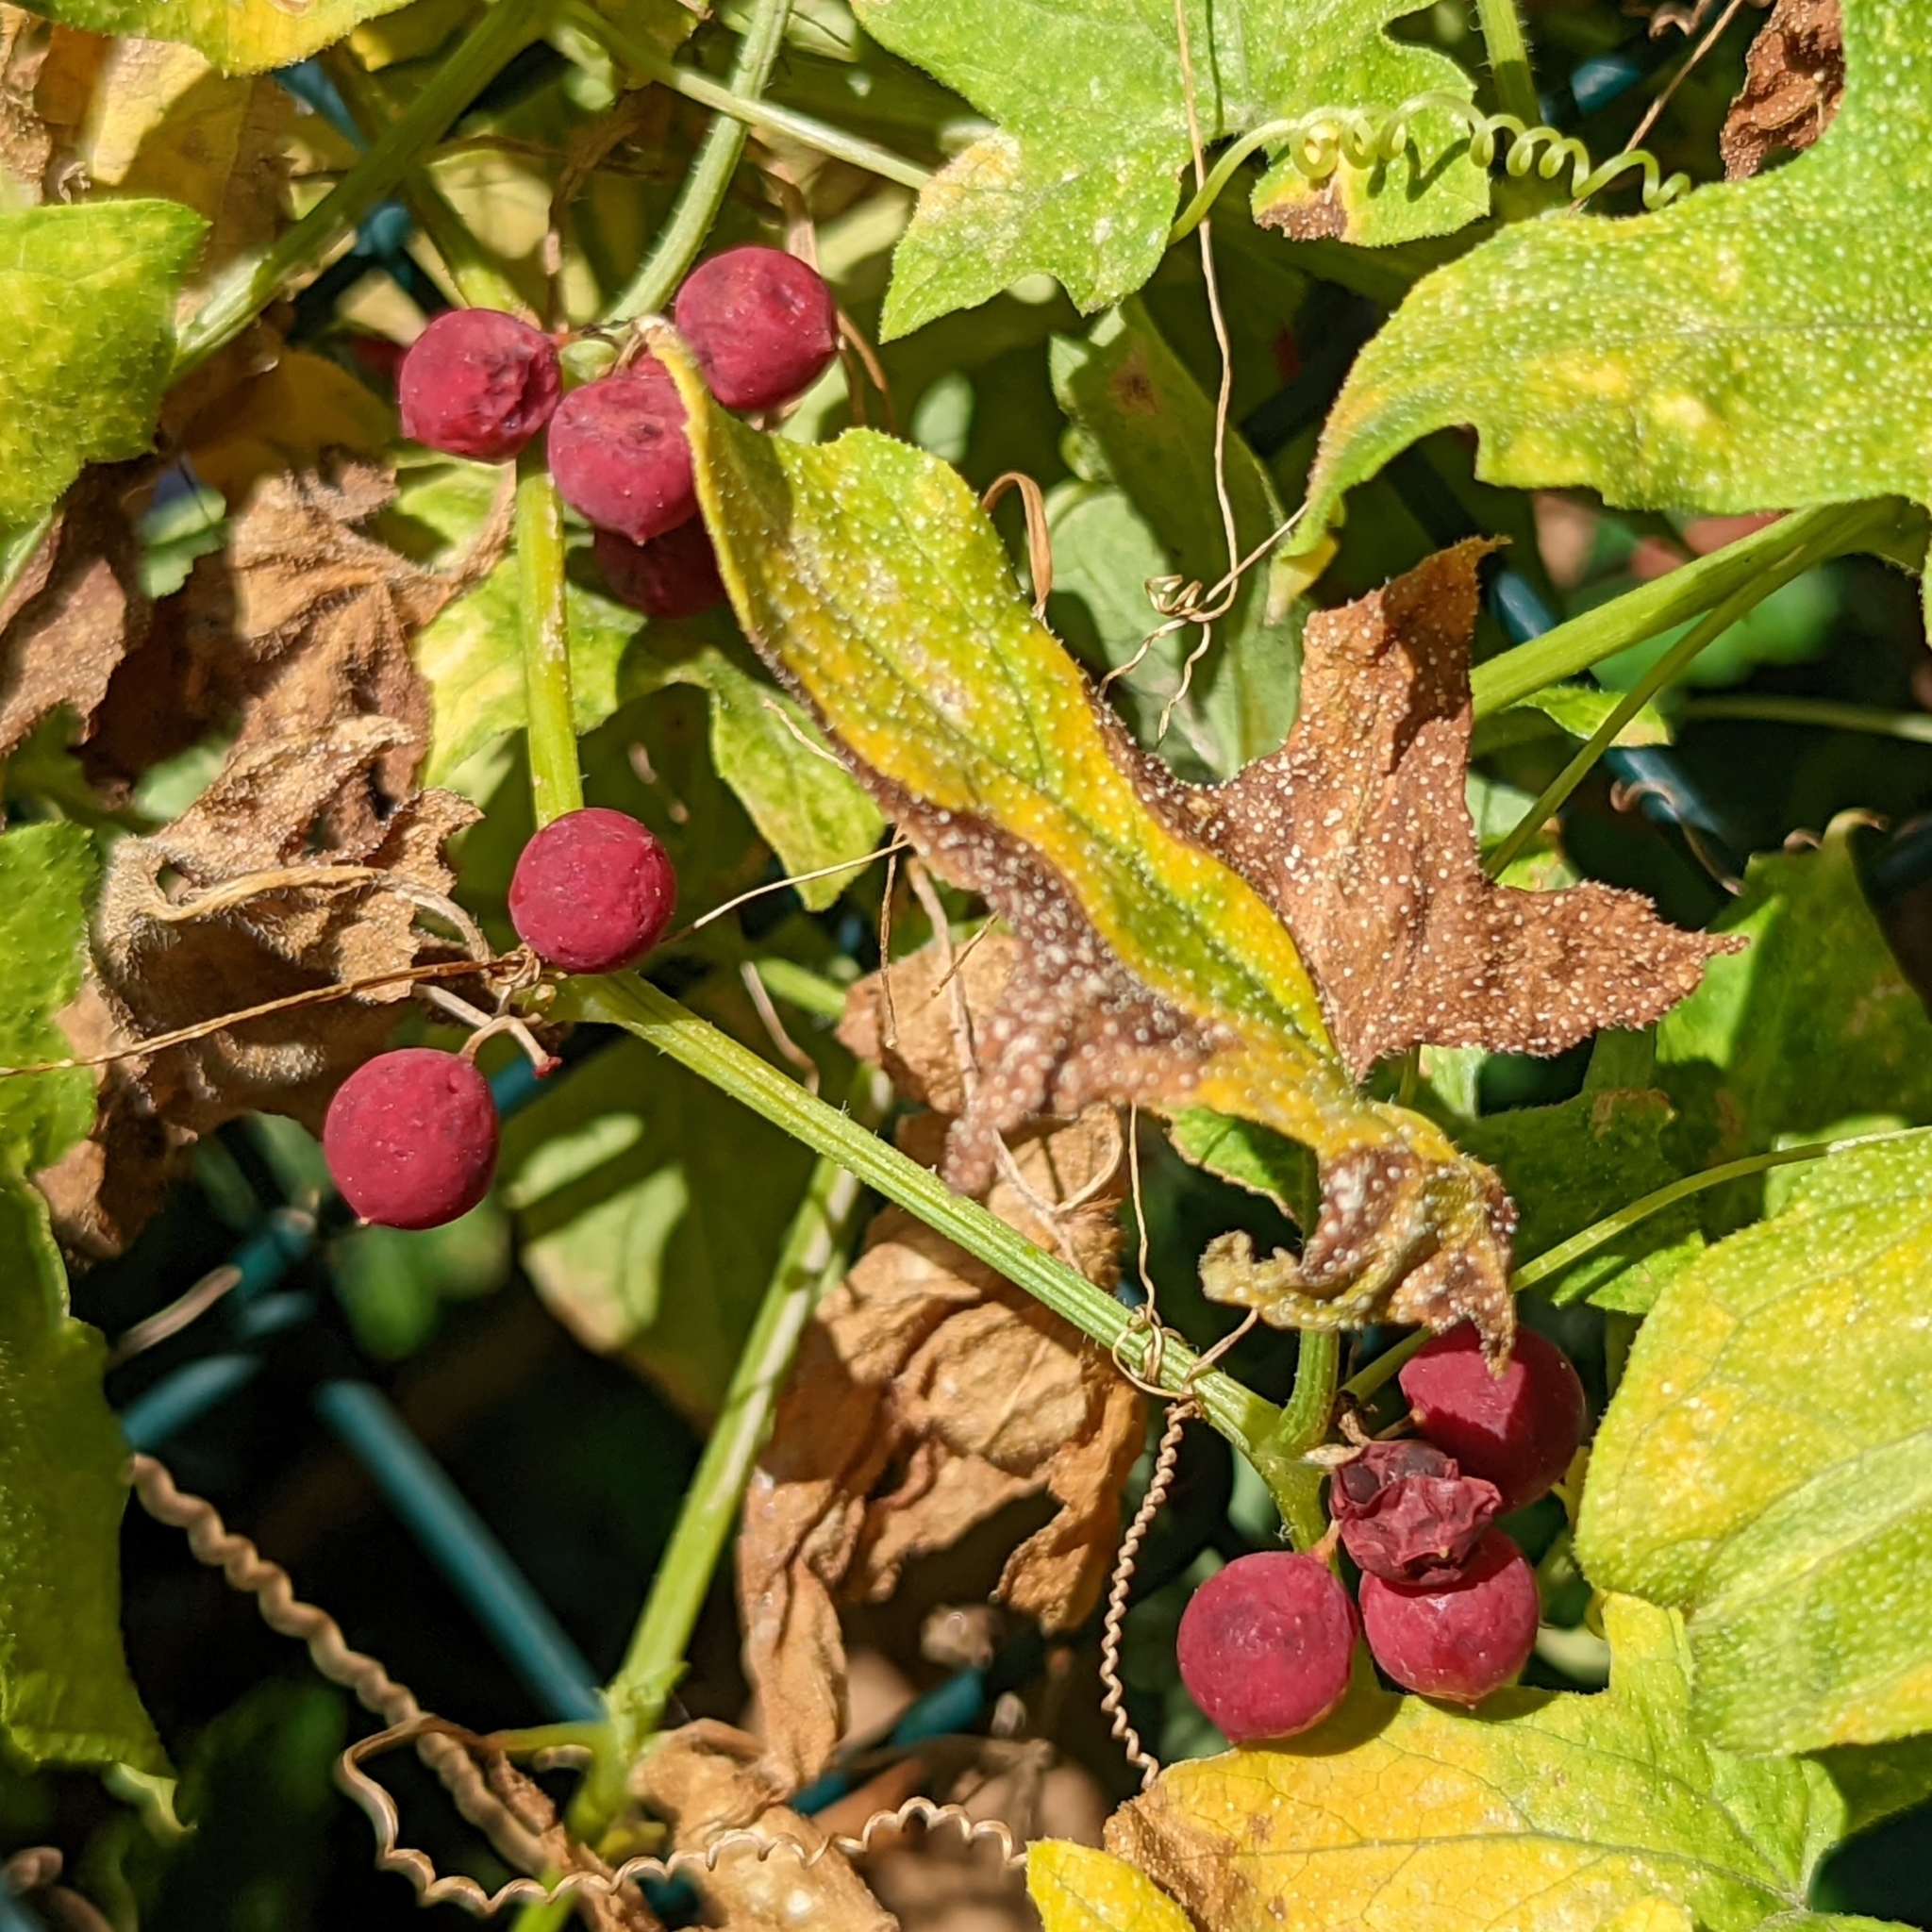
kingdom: Plantae
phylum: Tracheophyta
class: Magnoliopsida
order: Cucurbitales
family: Cucurbitaceae
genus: Bryonia
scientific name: Bryonia dioica
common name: White bryony
